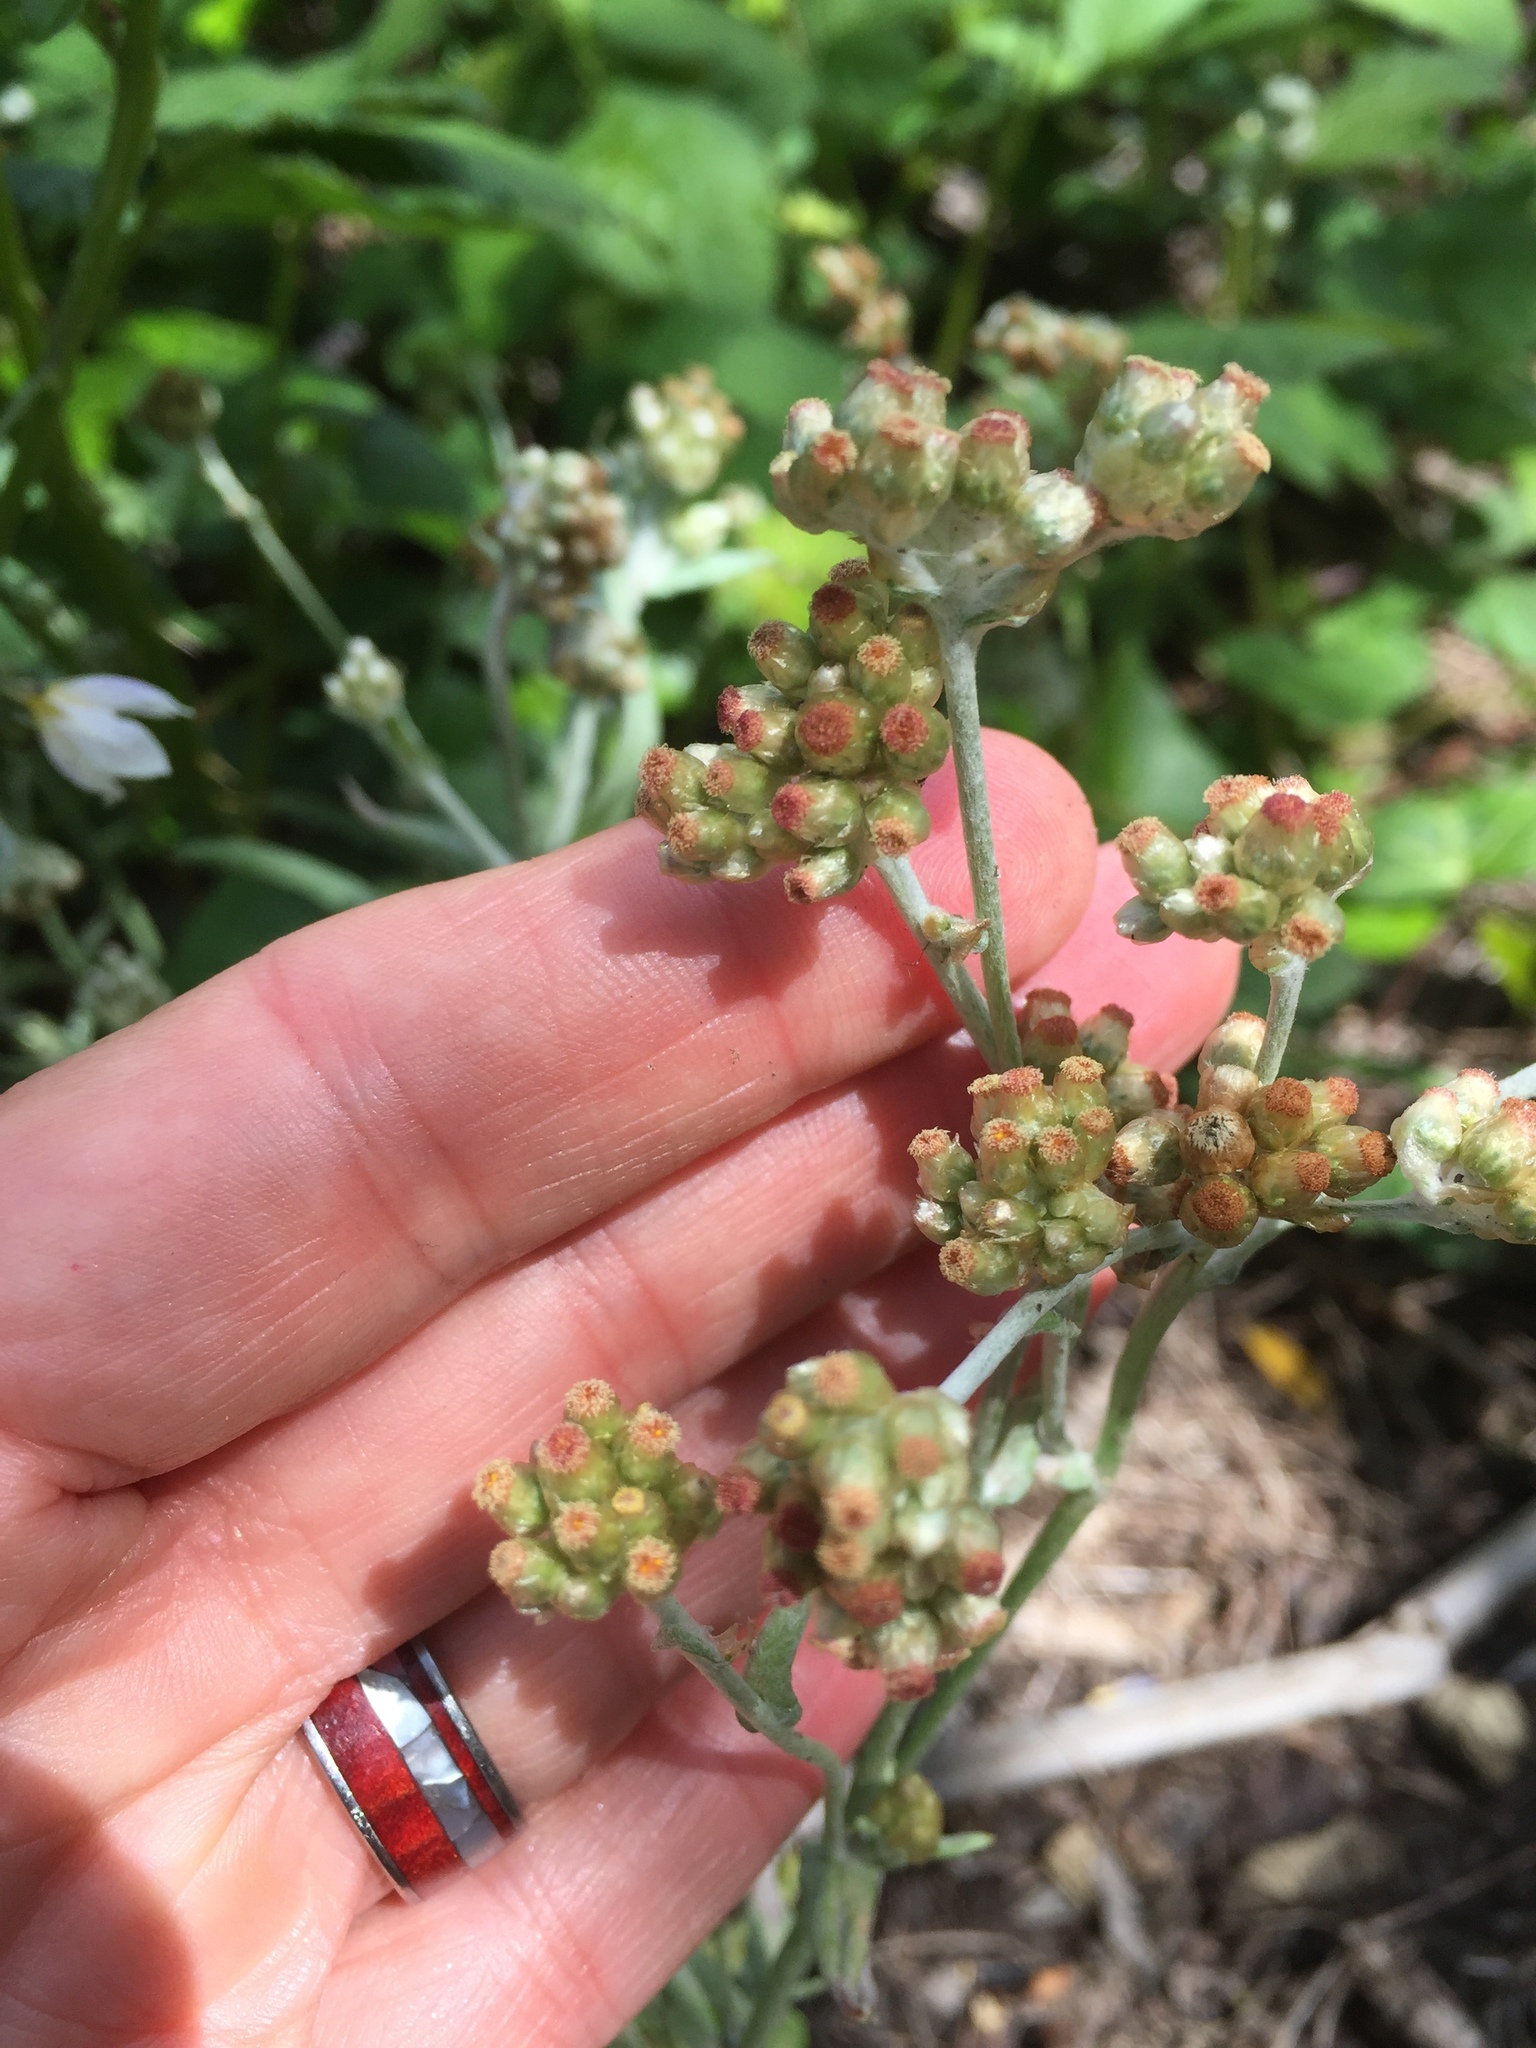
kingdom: Plantae
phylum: Tracheophyta
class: Magnoliopsida
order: Asterales
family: Asteraceae
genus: Gamochaeta
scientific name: Gamochaeta purpurea
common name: Purple cudweed
